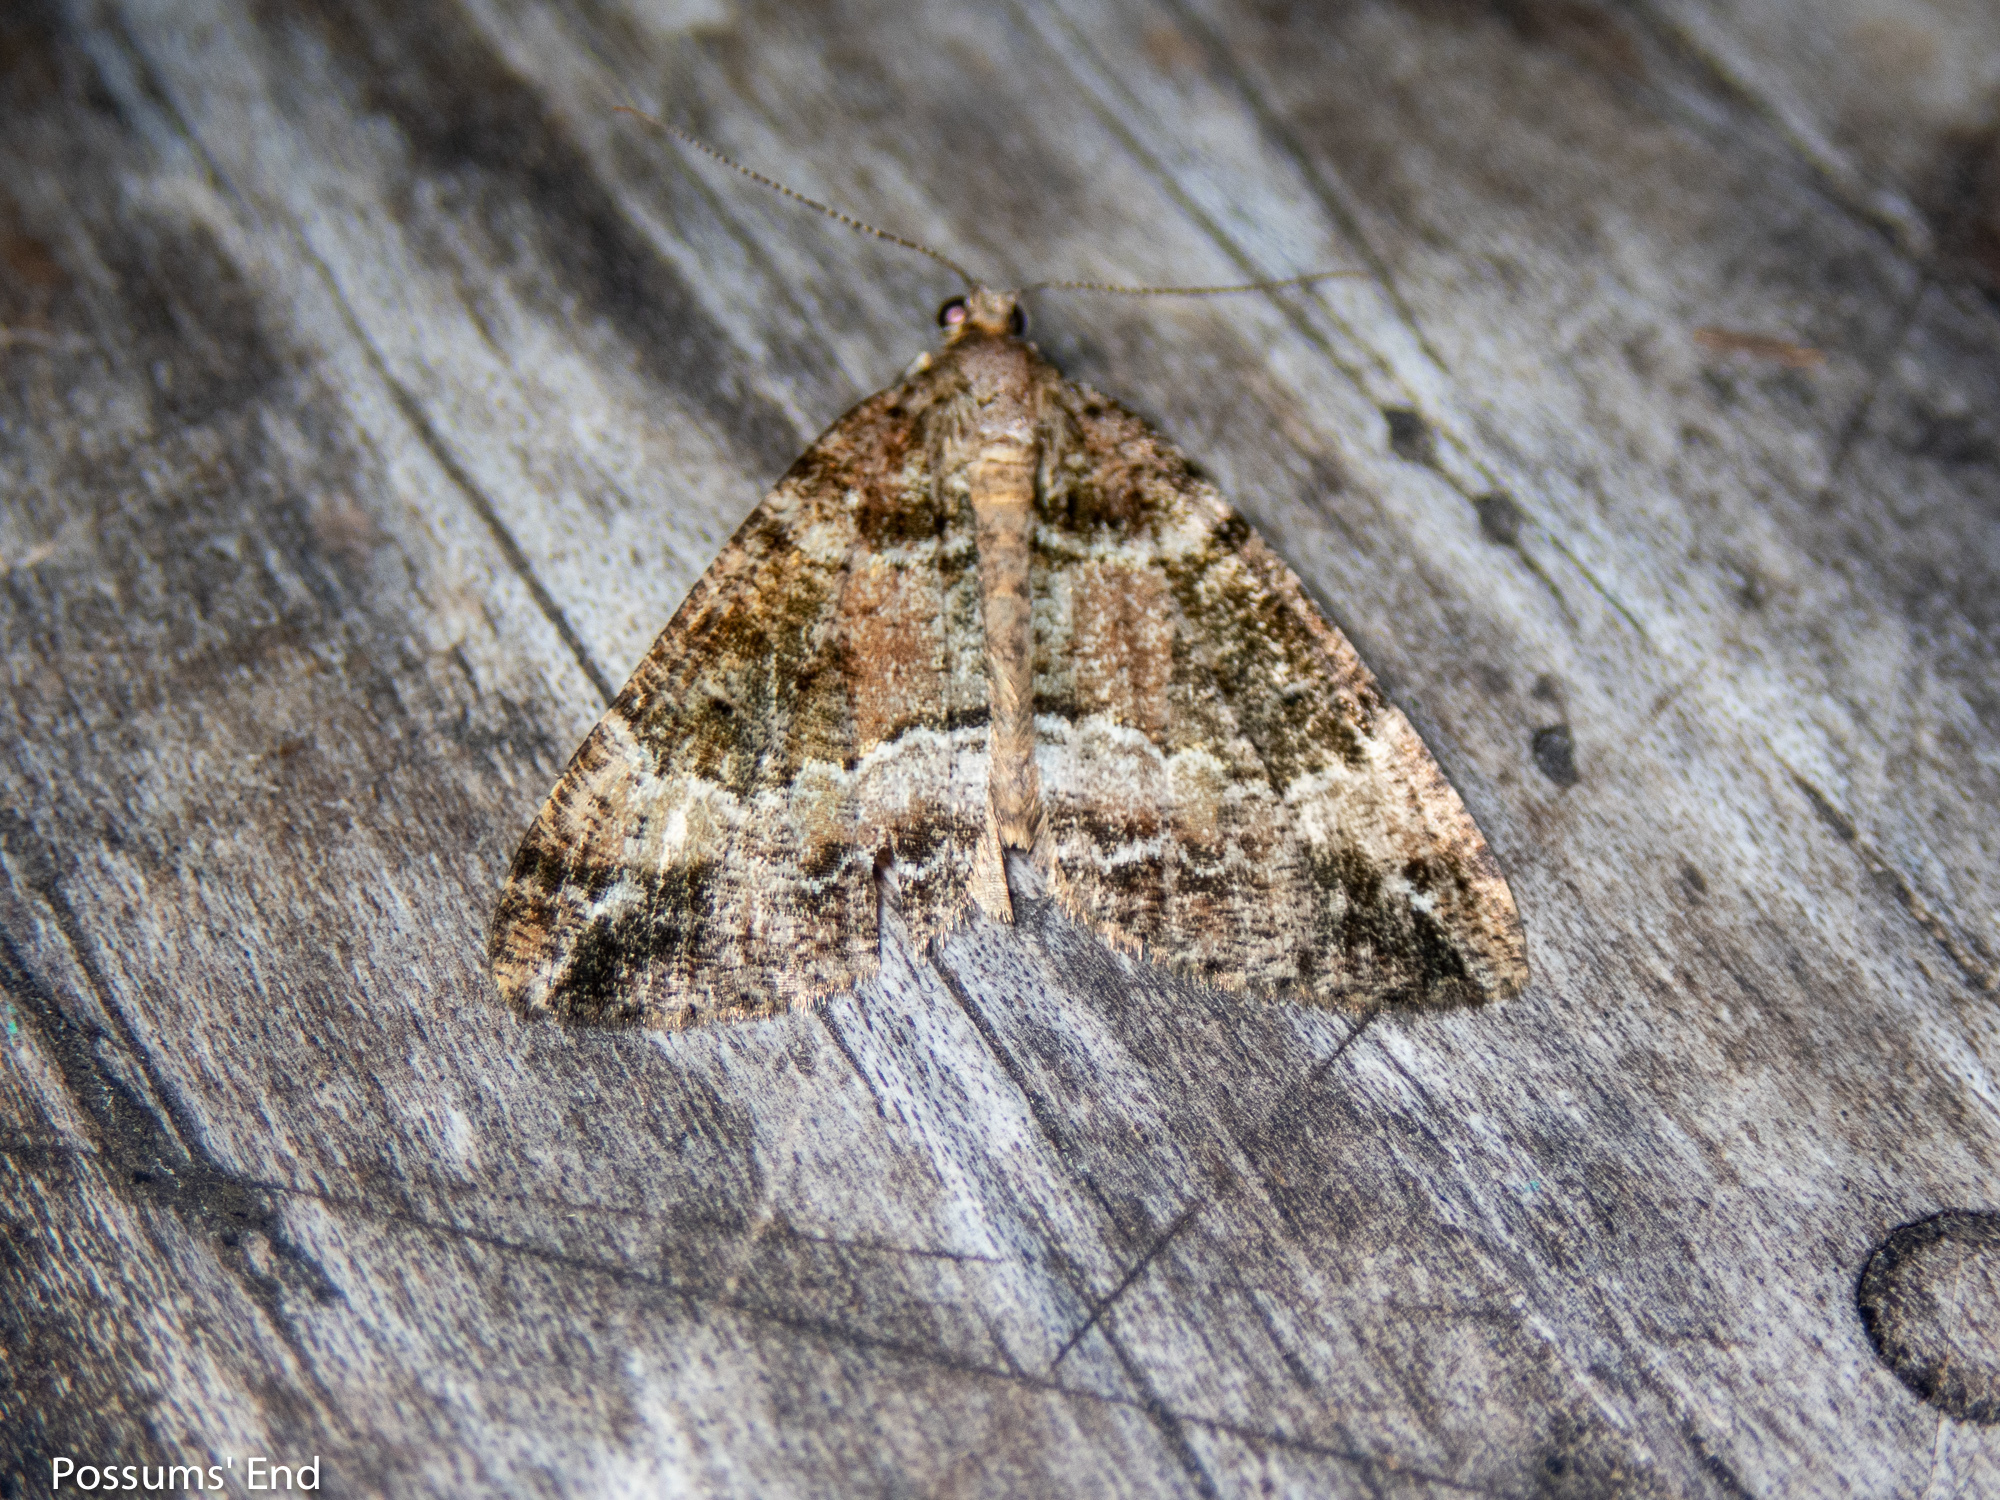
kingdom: Animalia
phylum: Arthropoda
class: Insecta
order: Lepidoptera
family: Geometridae
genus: Pseudocoremia
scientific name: Pseudocoremia productata
